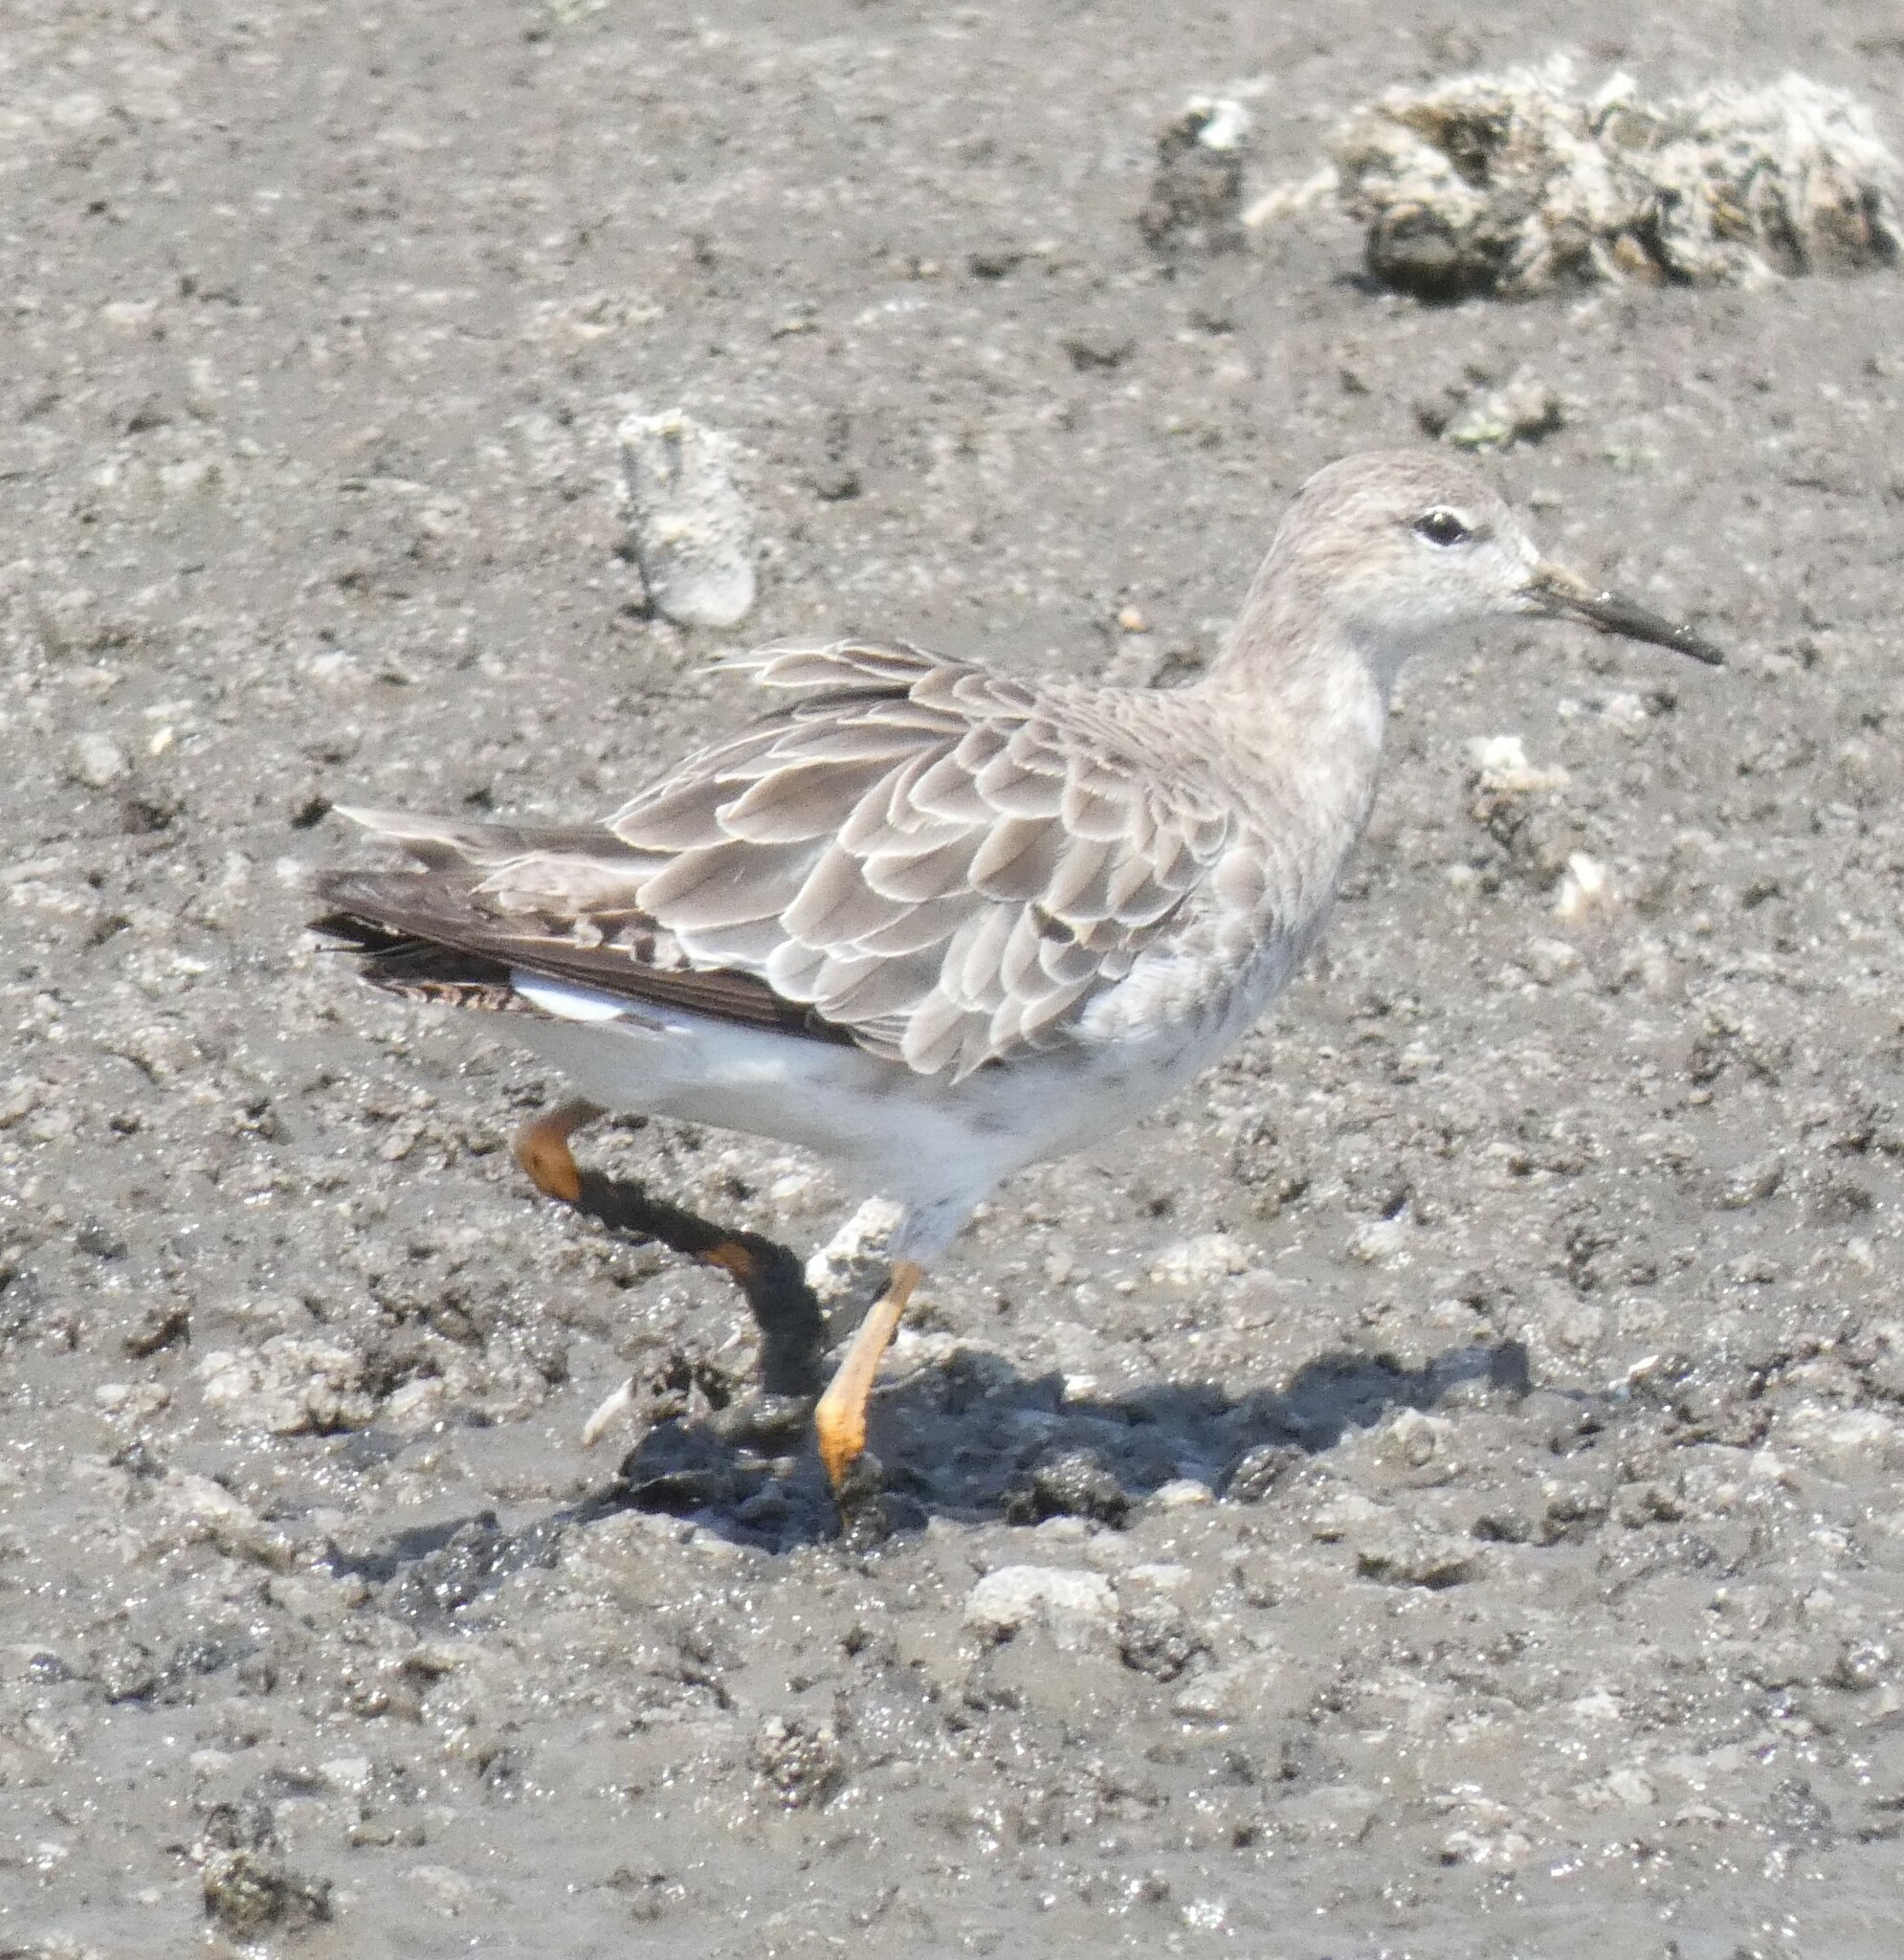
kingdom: Animalia
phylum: Chordata
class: Aves
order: Charadriiformes
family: Scolopacidae
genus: Calidris
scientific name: Calidris pugnax
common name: Ruff
